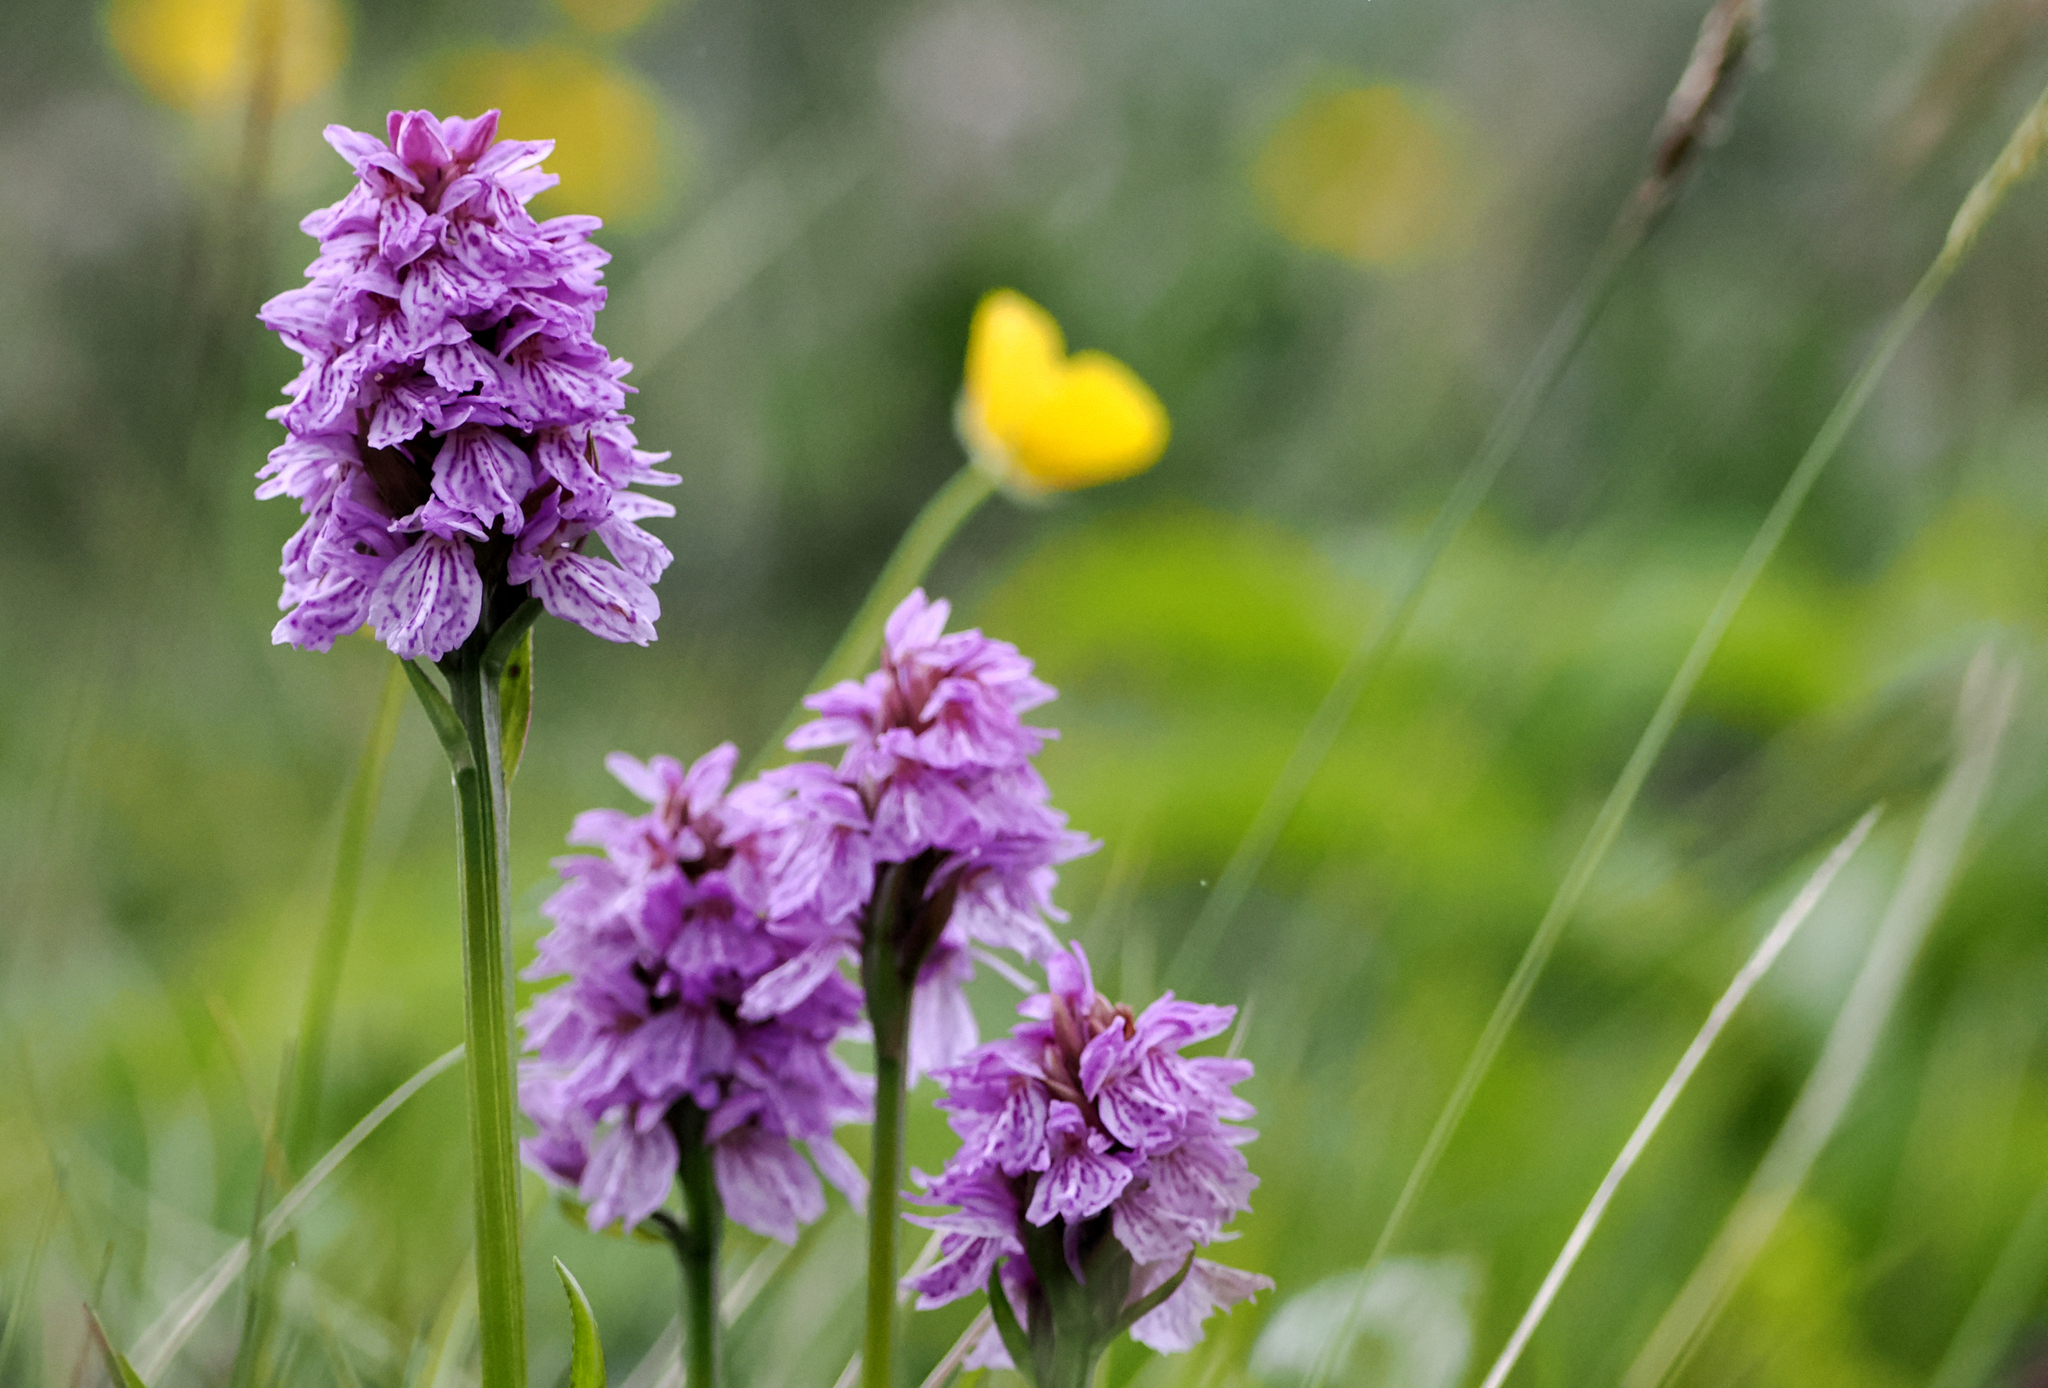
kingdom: Plantae
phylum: Tracheophyta
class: Liliopsida
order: Asparagales
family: Orchidaceae
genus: Dactylorhiza
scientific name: Dactylorhiza maculata
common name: Heath spotted-orchid
